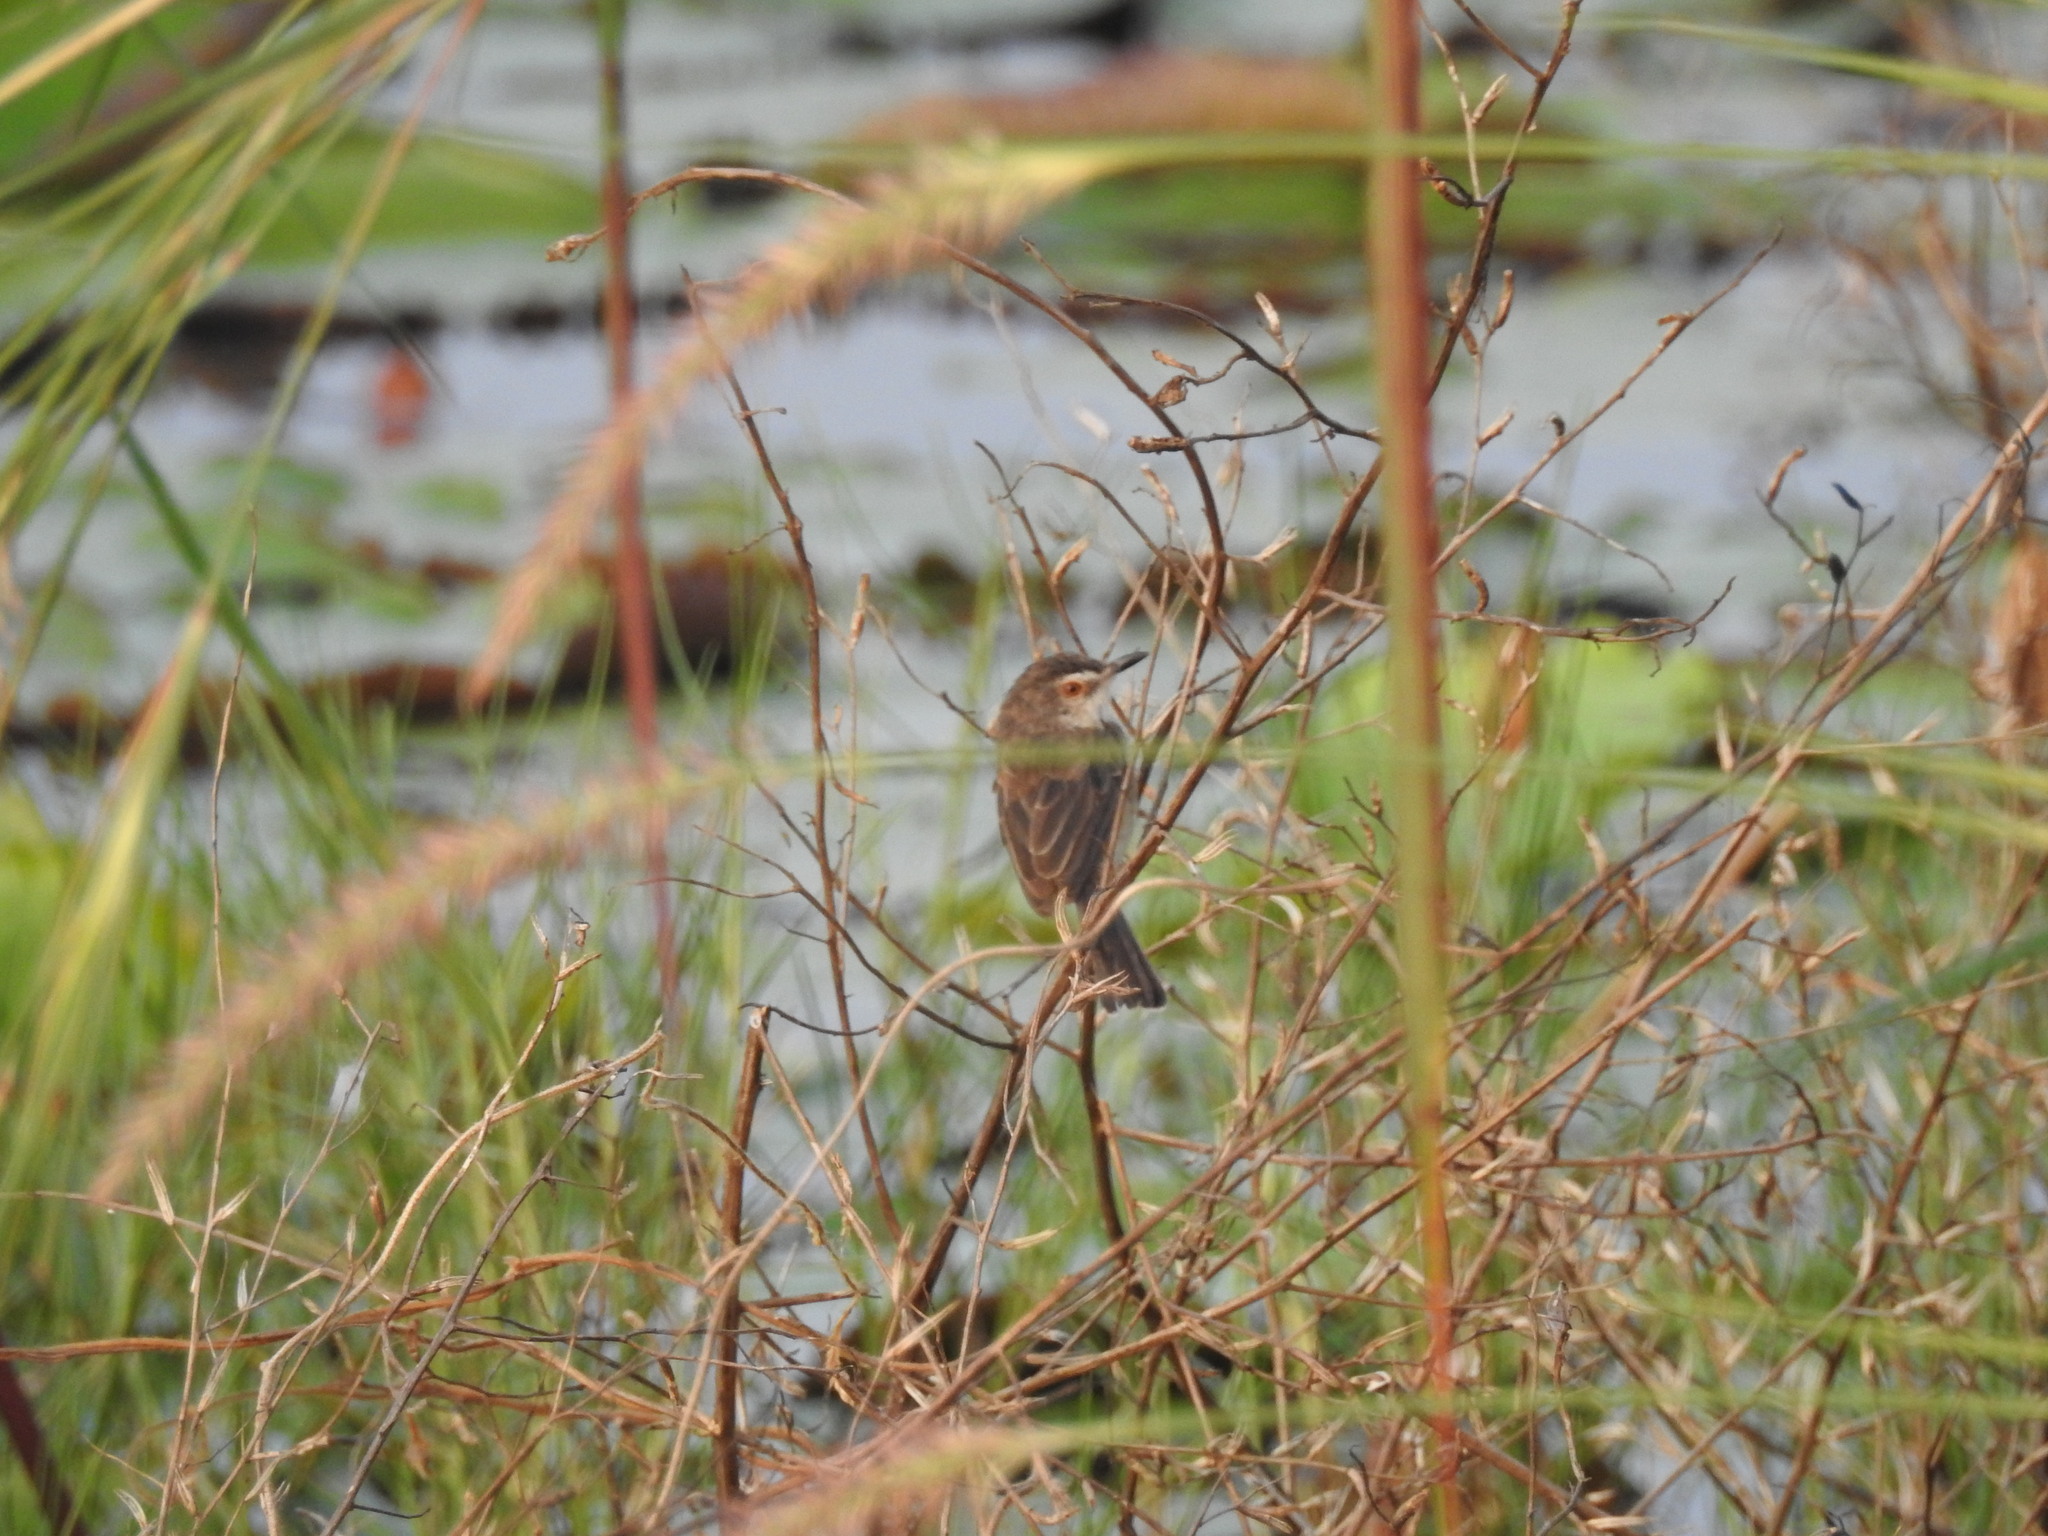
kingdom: Animalia
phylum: Chordata
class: Aves
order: Passeriformes
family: Cisticolidae
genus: Prinia
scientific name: Prinia inornata
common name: Plain prinia
